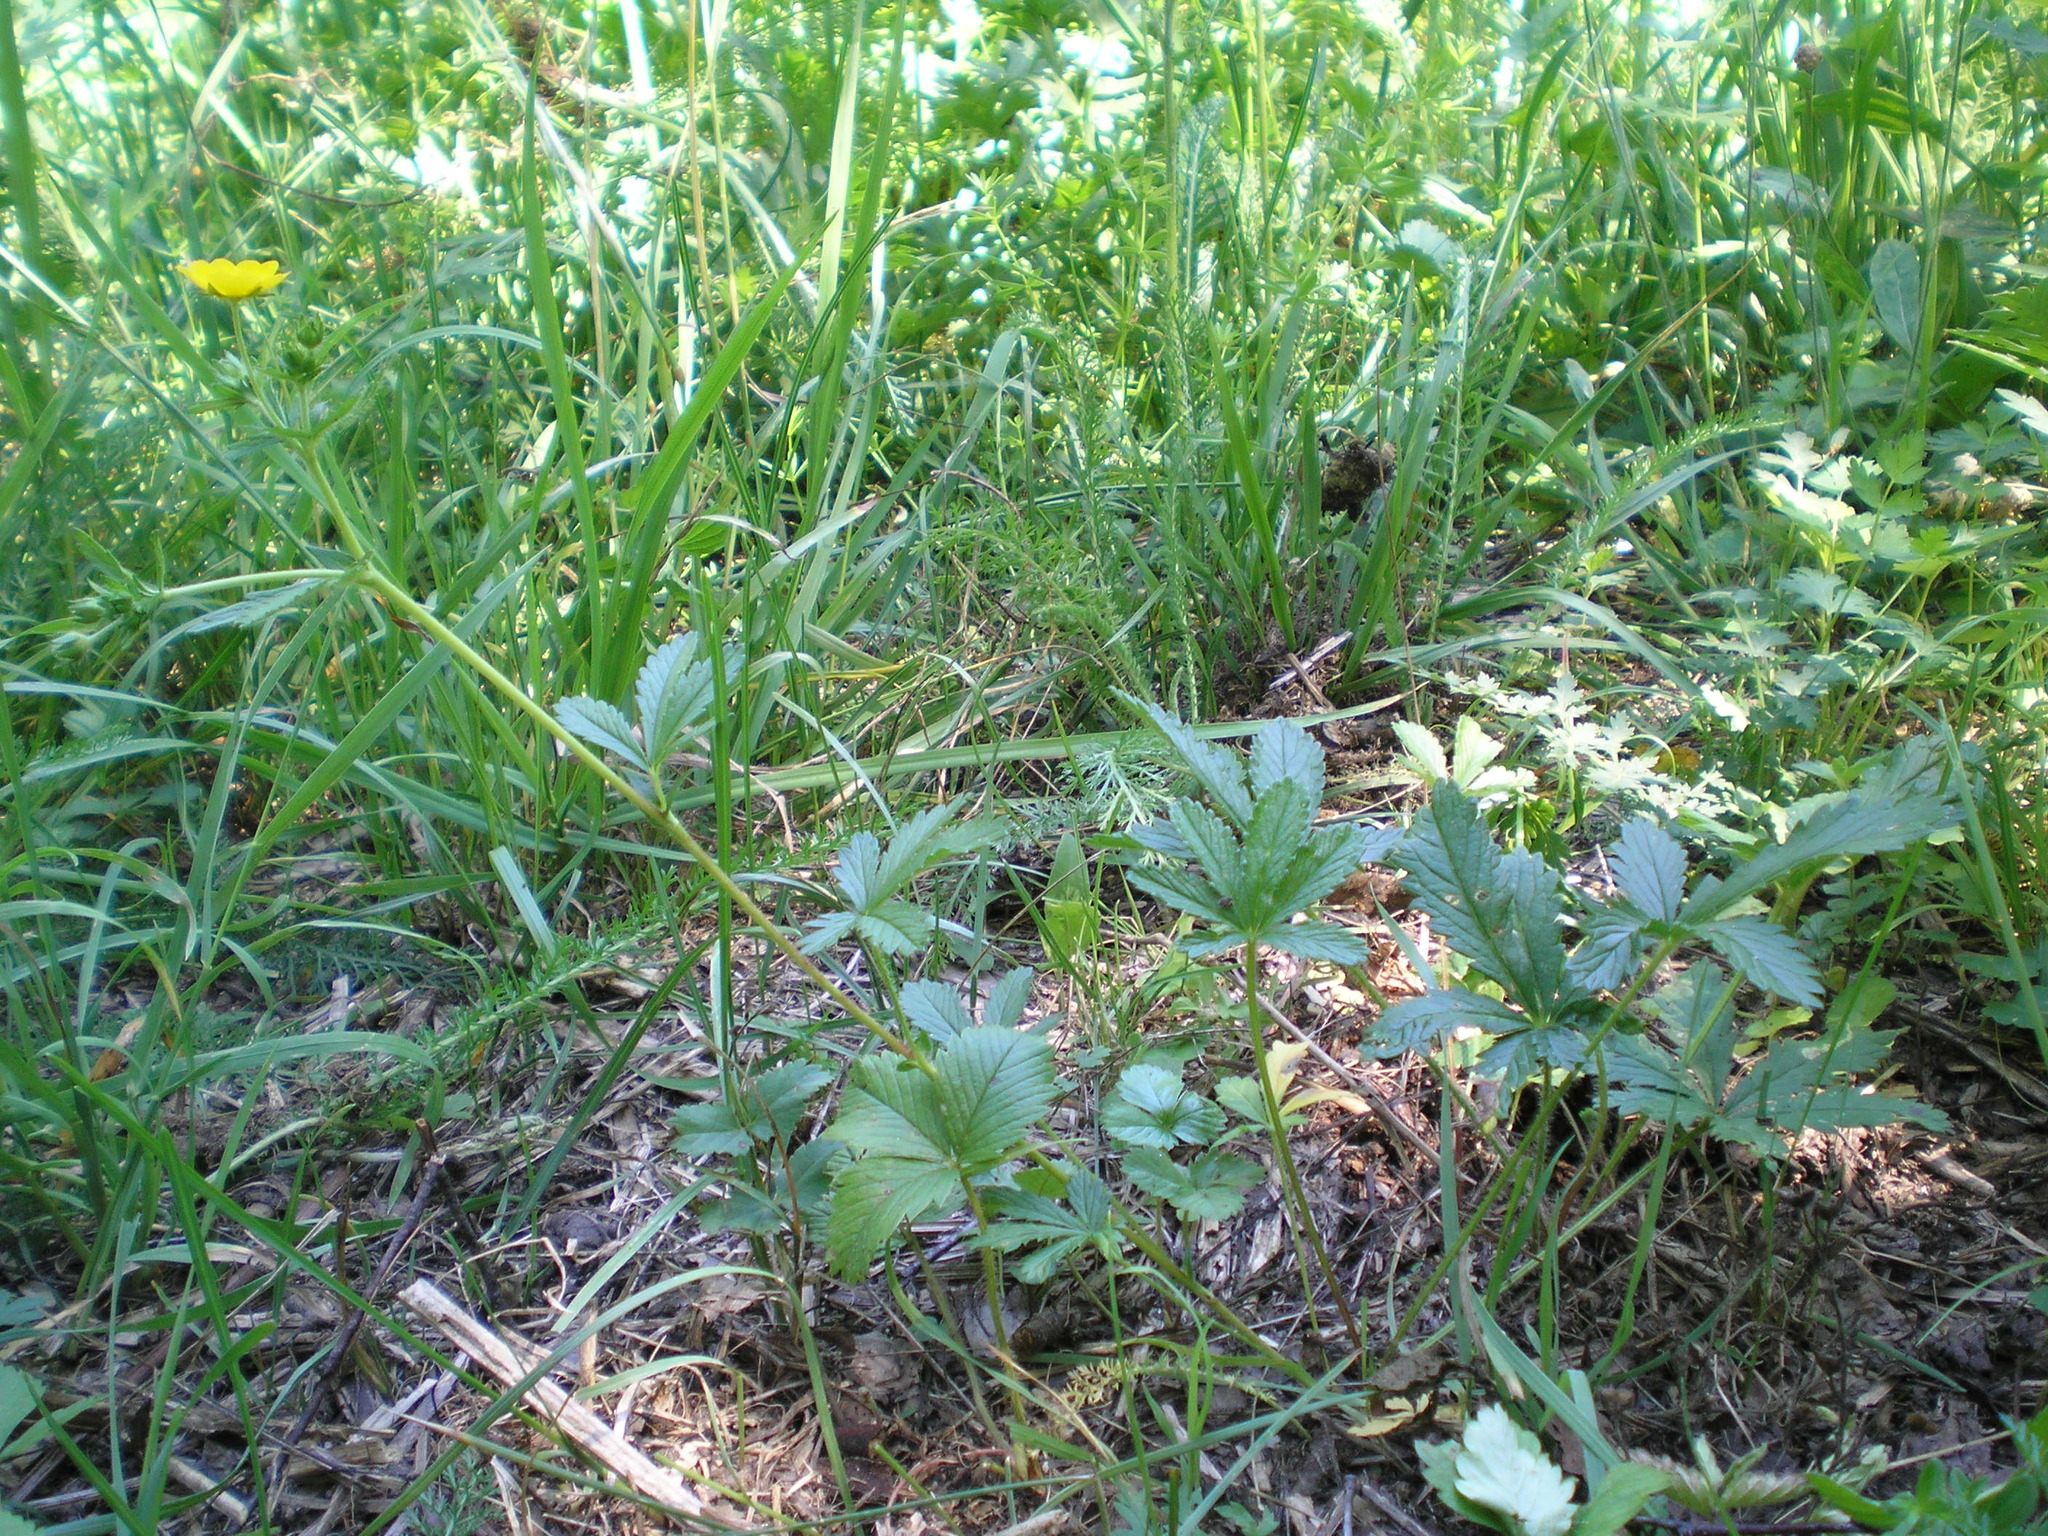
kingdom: Plantae
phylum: Tracheophyta
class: Magnoliopsida
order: Rosales
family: Rosaceae
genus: Potentilla
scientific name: Potentilla thuringiaca
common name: European cinquefoil
